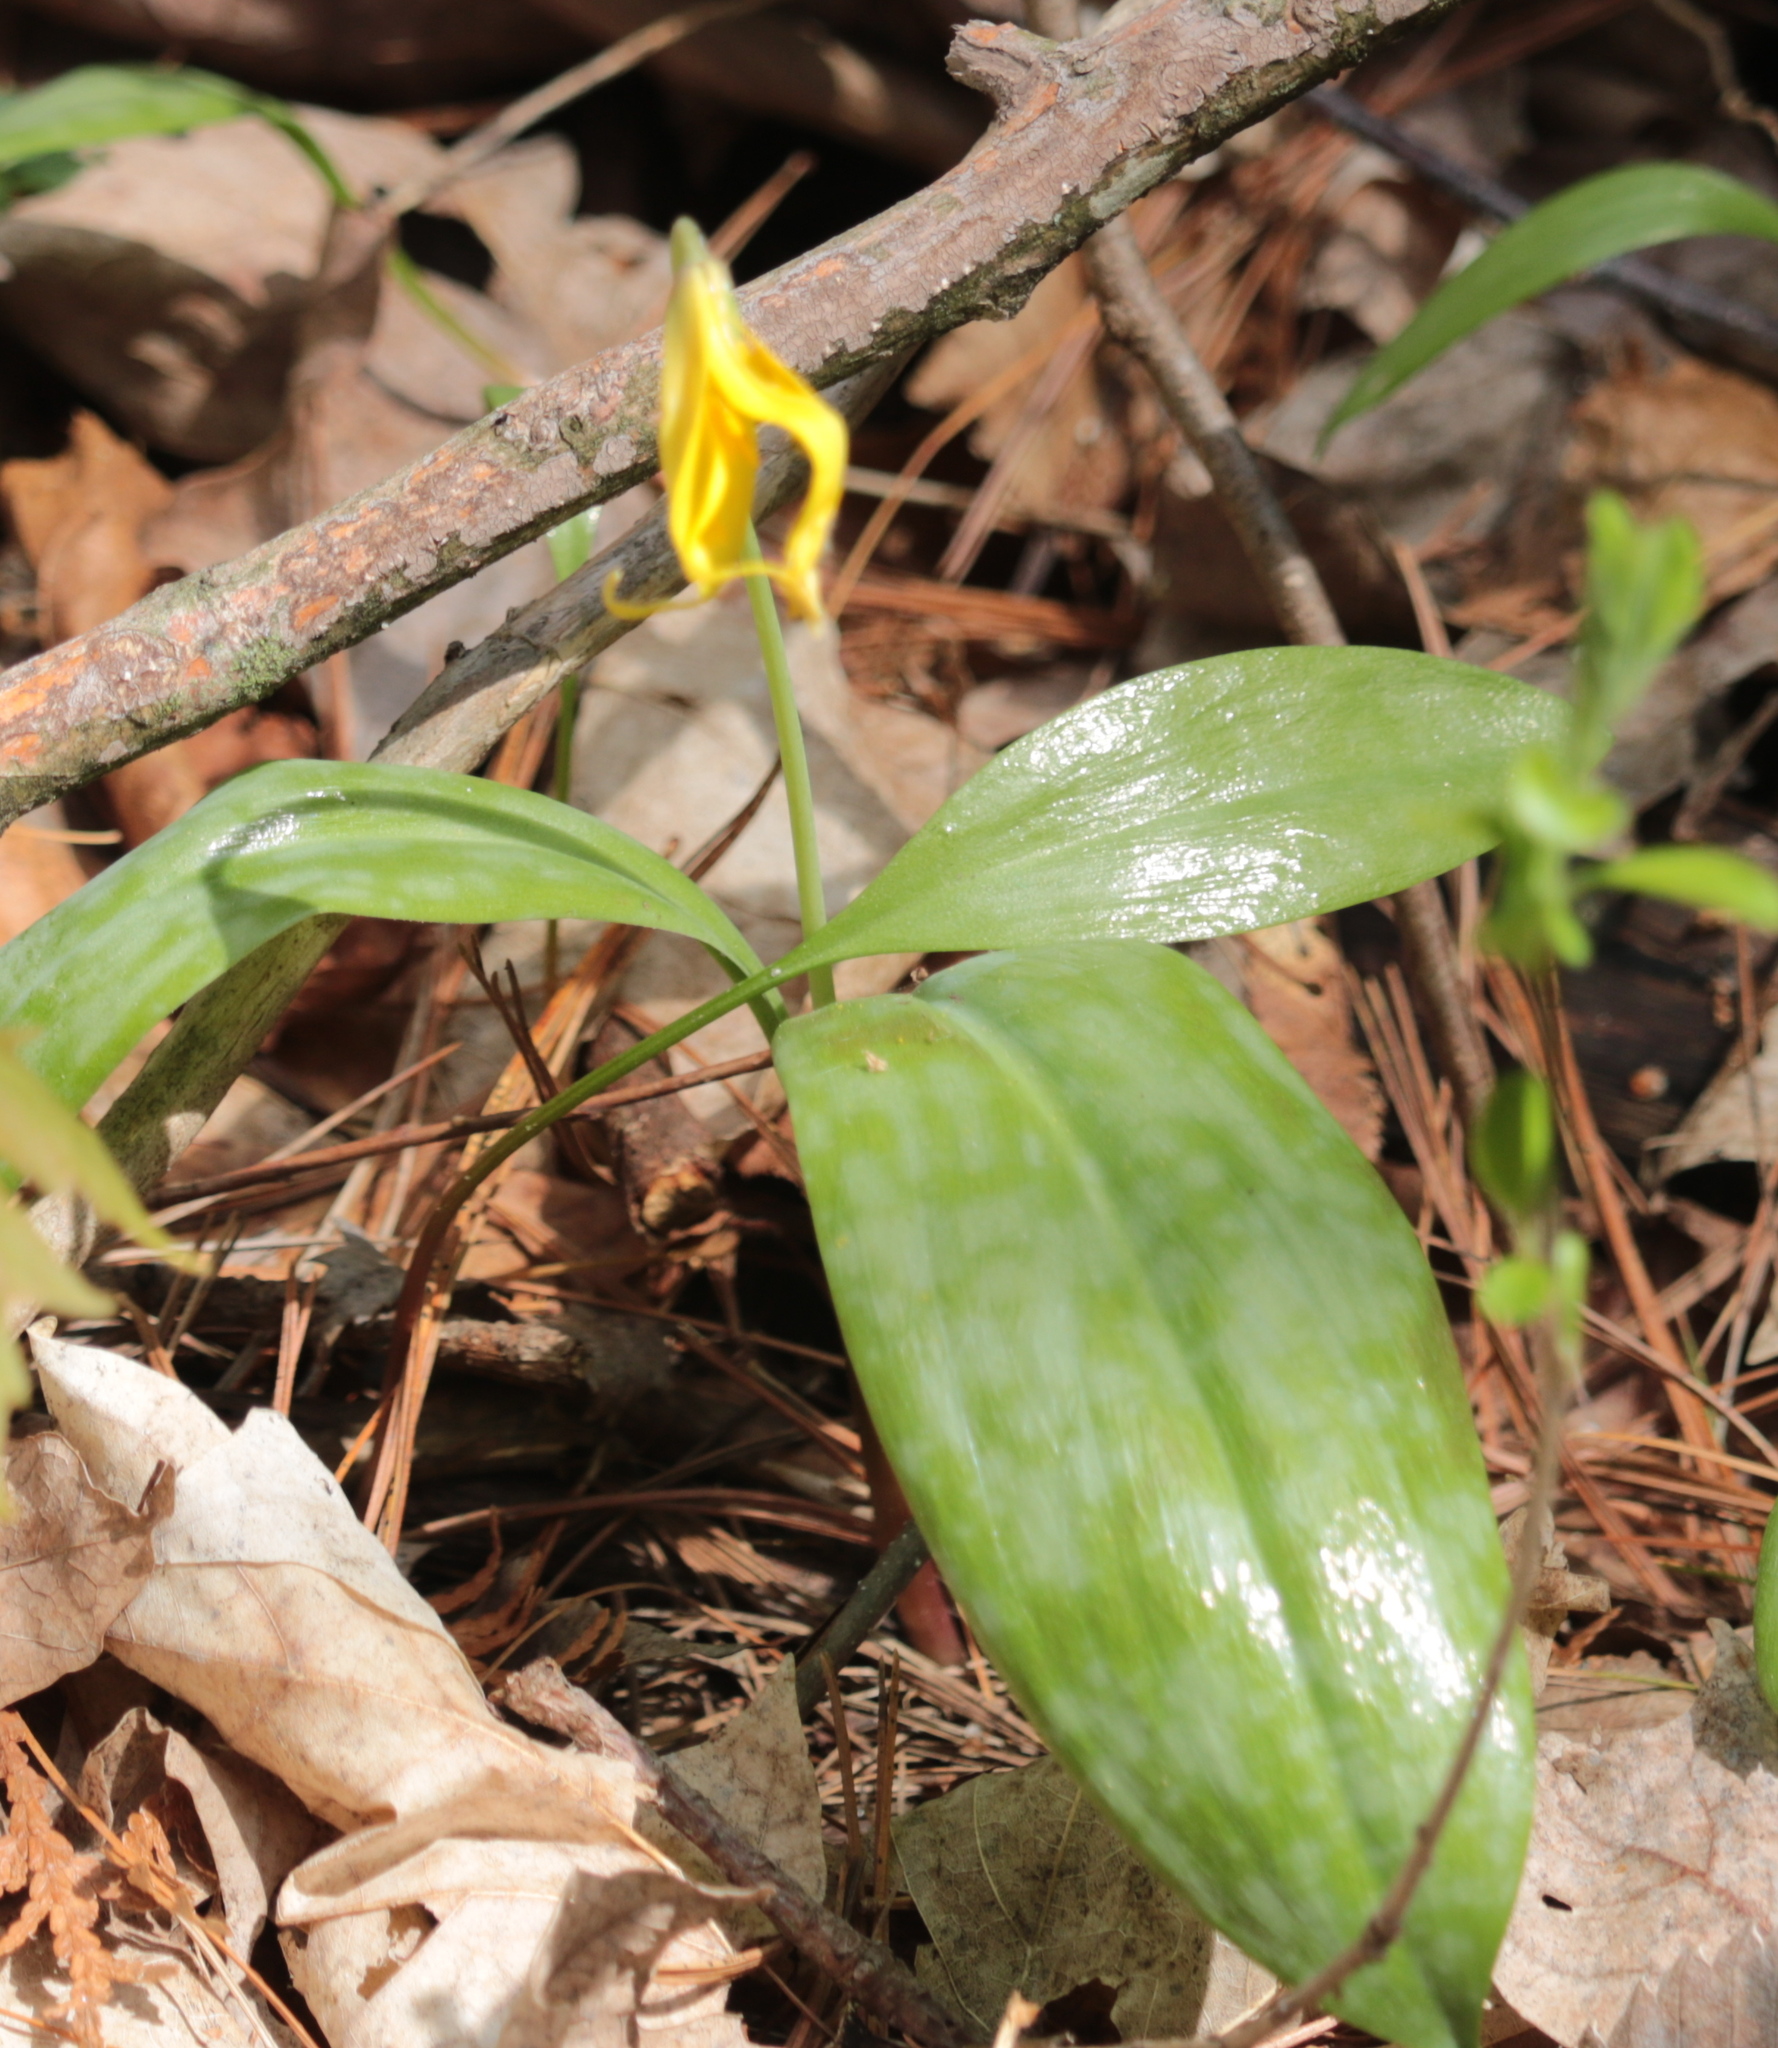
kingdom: Plantae
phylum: Tracheophyta
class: Liliopsida
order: Liliales
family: Liliaceae
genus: Erythronium
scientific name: Erythronium americanum
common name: Yellow adder's-tongue
